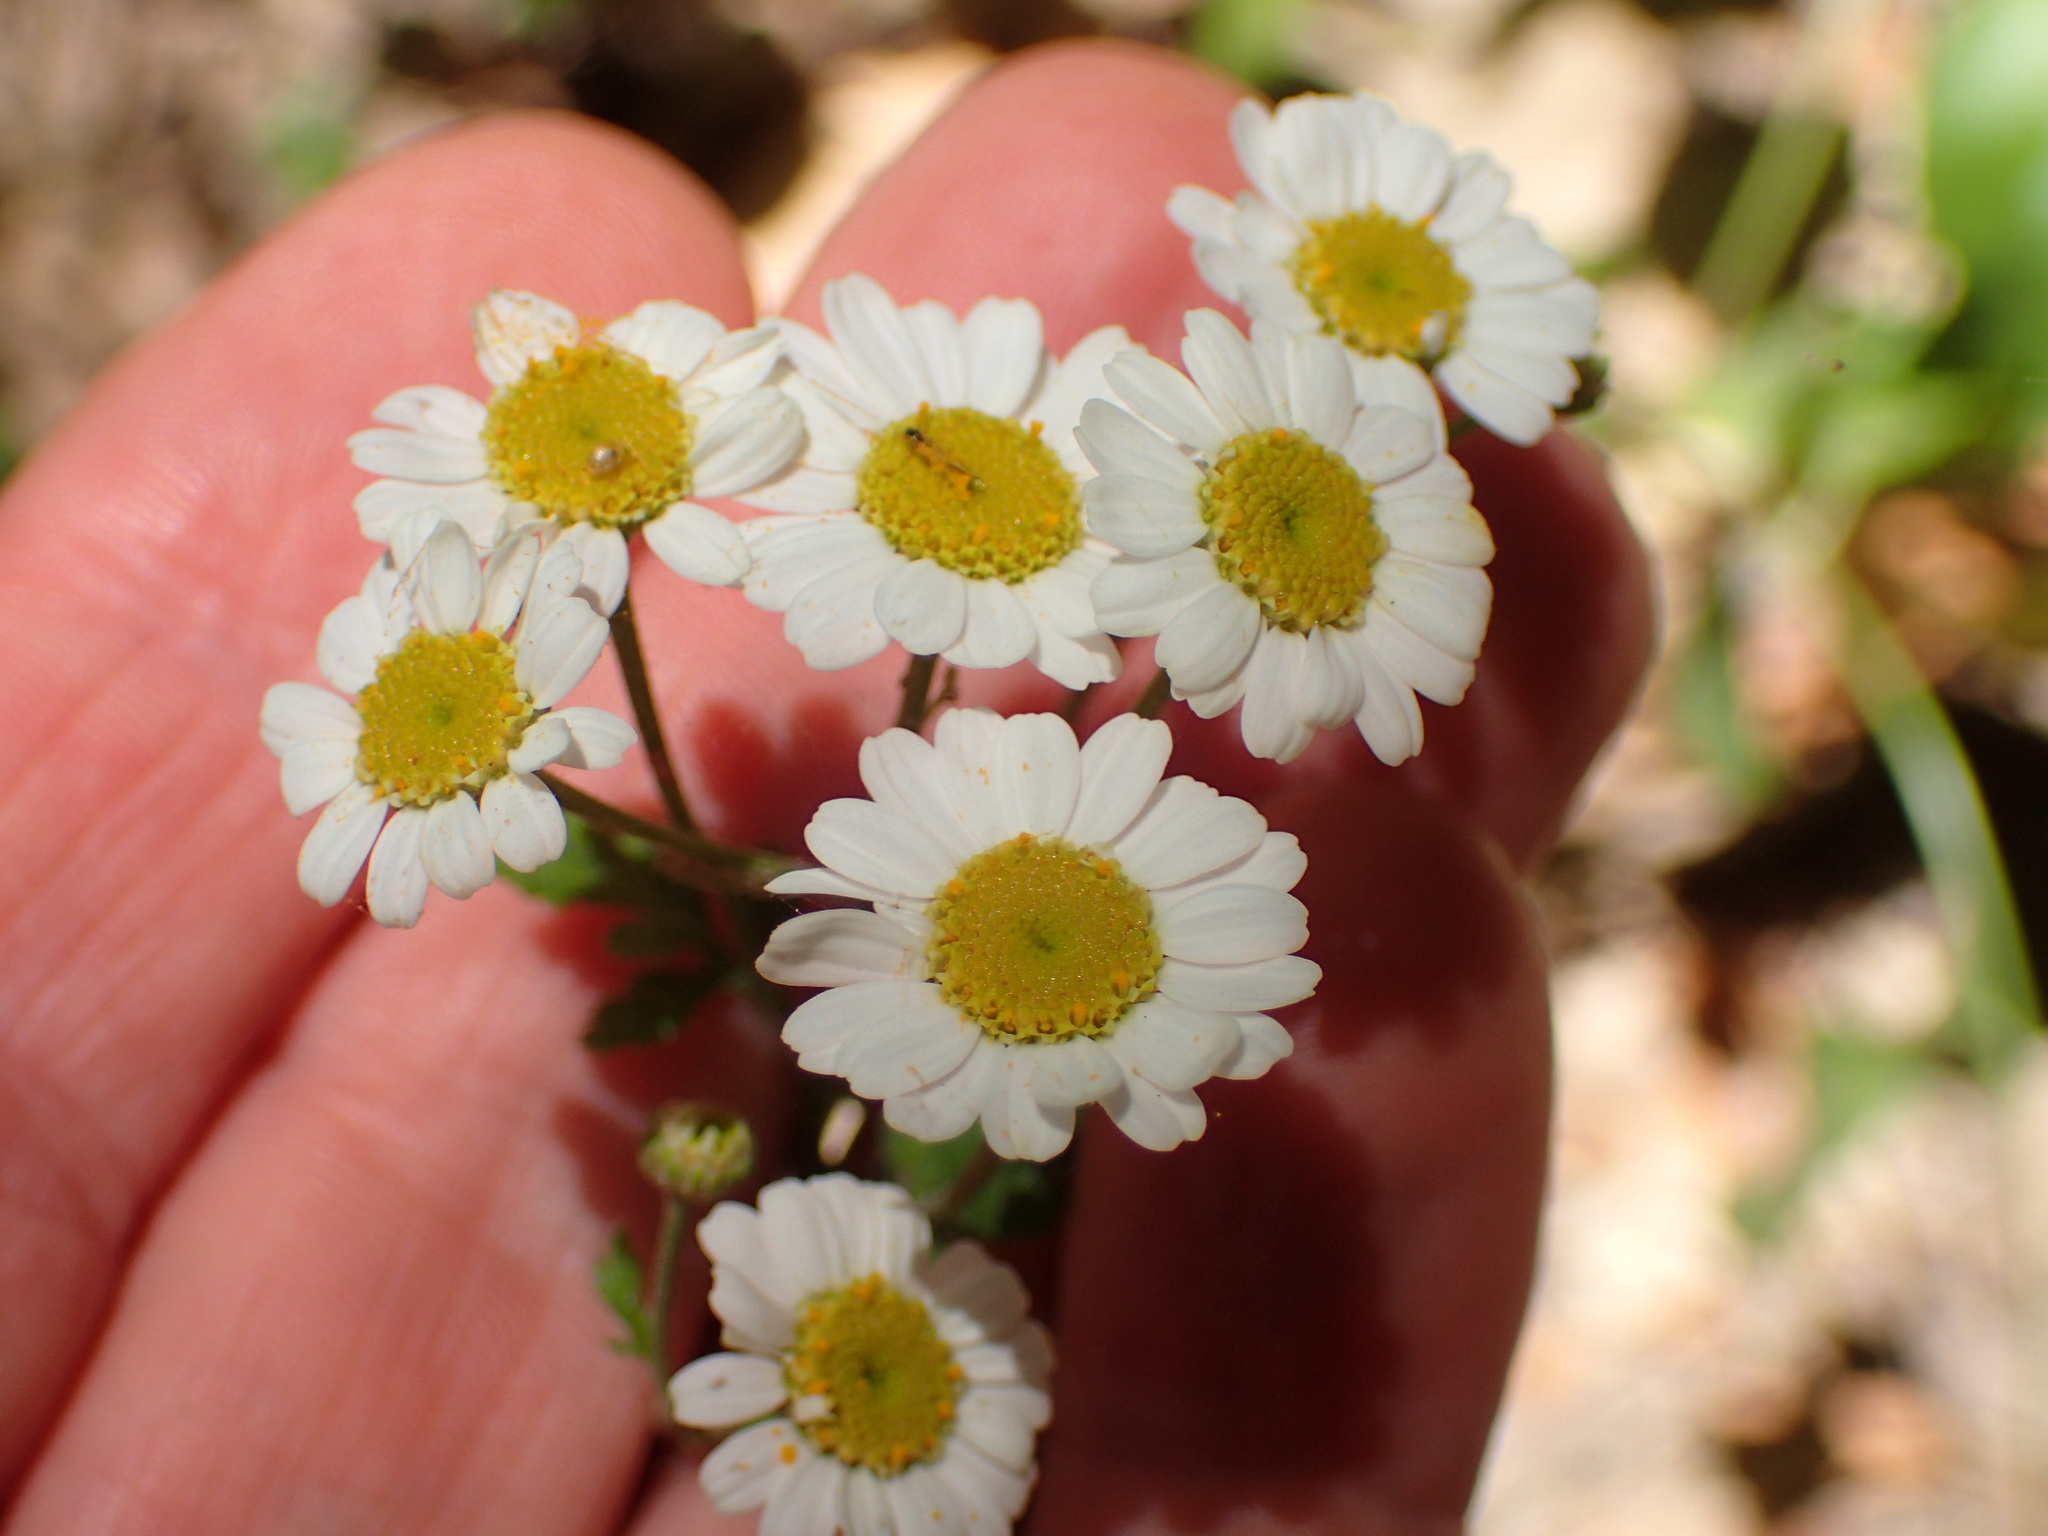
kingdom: Plantae
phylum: Tracheophyta
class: Magnoliopsida
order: Asterales
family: Asteraceae
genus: Tanacetum
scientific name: Tanacetum parthenium
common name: Feverfew
